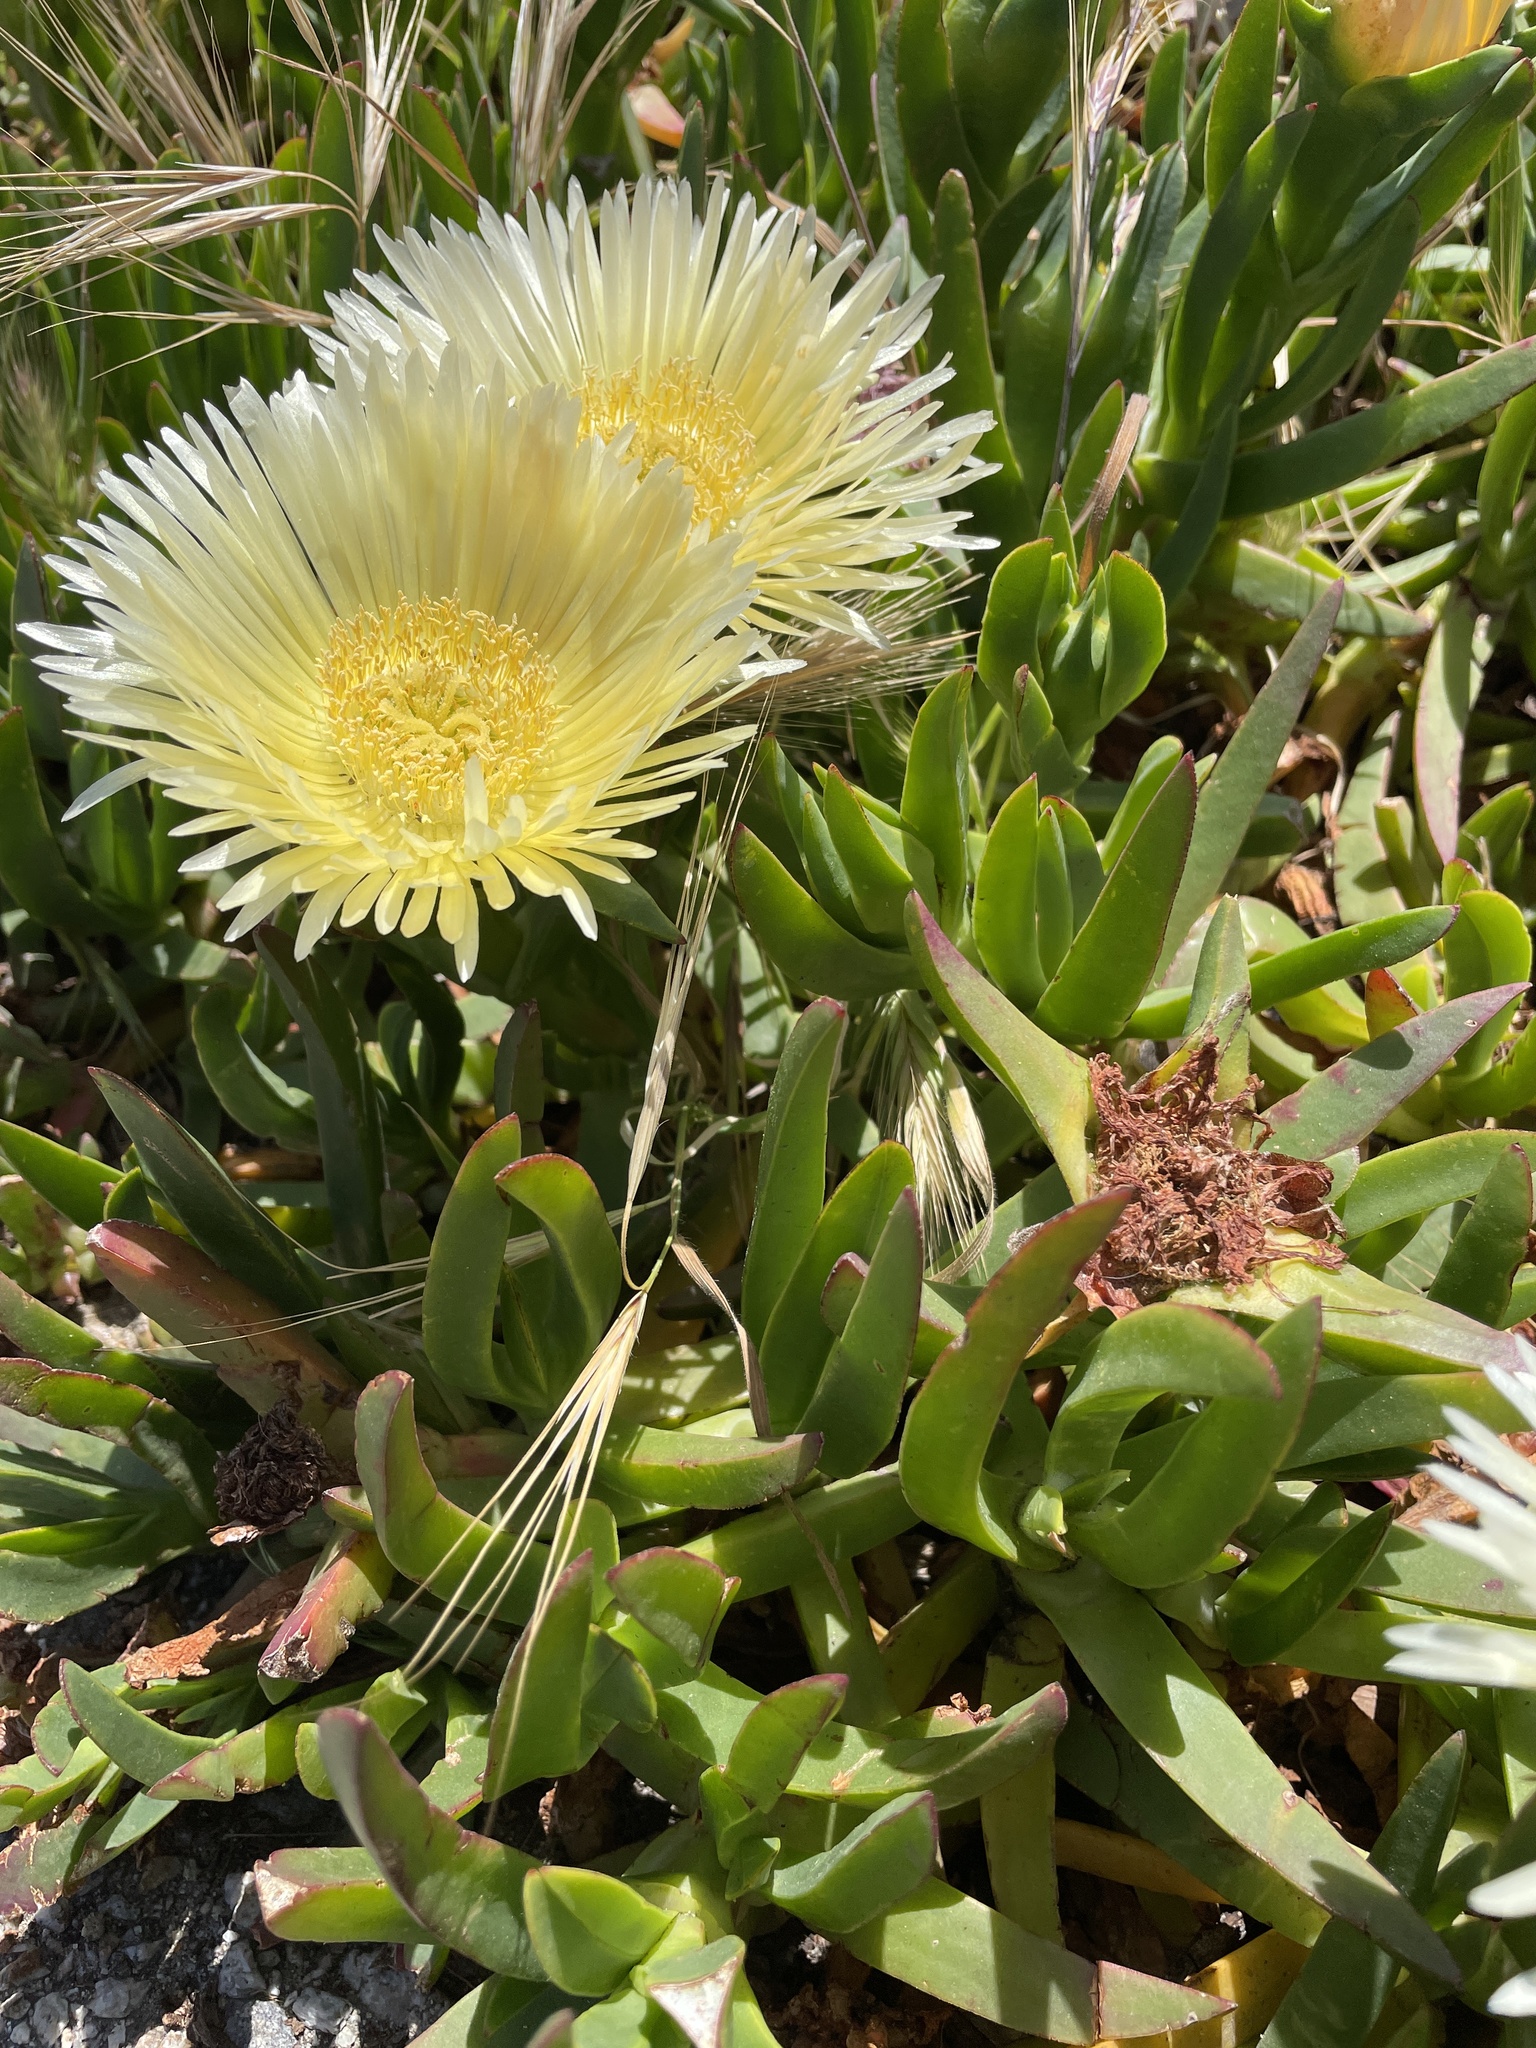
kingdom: Plantae
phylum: Tracheophyta
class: Magnoliopsida
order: Caryophyllales
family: Aizoaceae
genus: Carpobrotus
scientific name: Carpobrotus edulis
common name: Hottentot-fig
